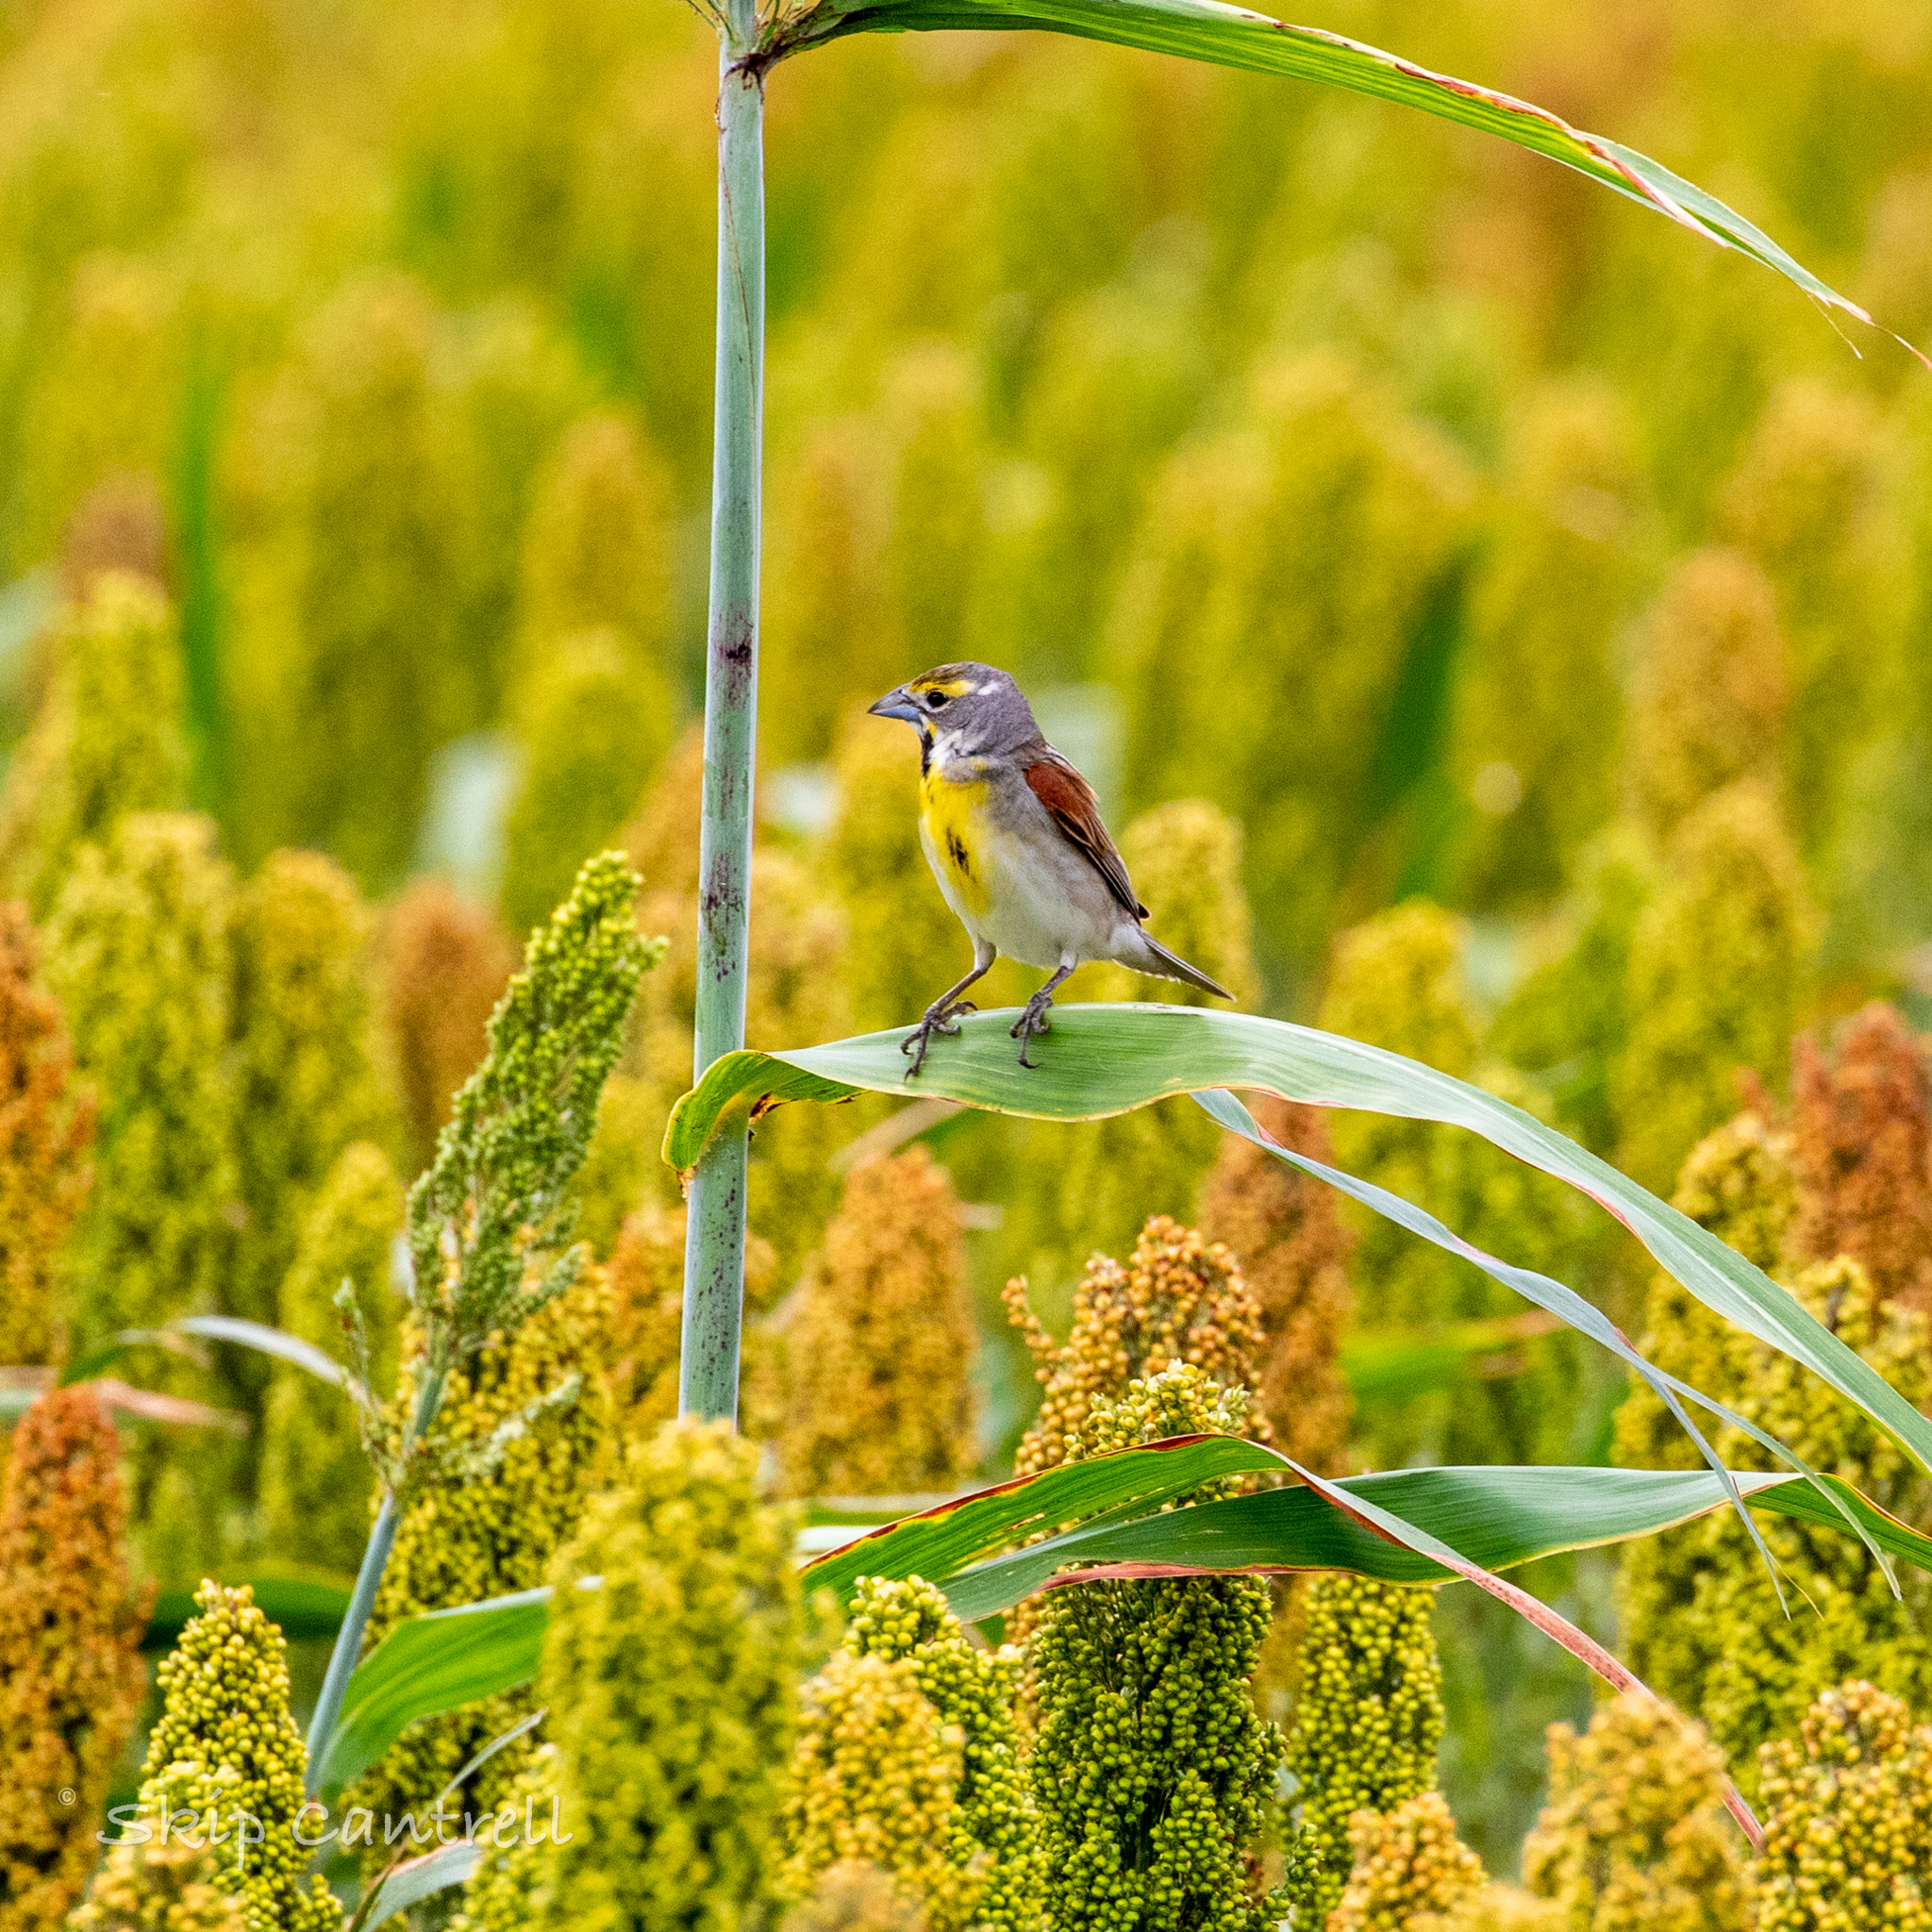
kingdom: Animalia
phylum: Chordata
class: Aves
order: Passeriformes
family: Cardinalidae
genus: Spiza
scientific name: Spiza americana
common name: Dickcissel
